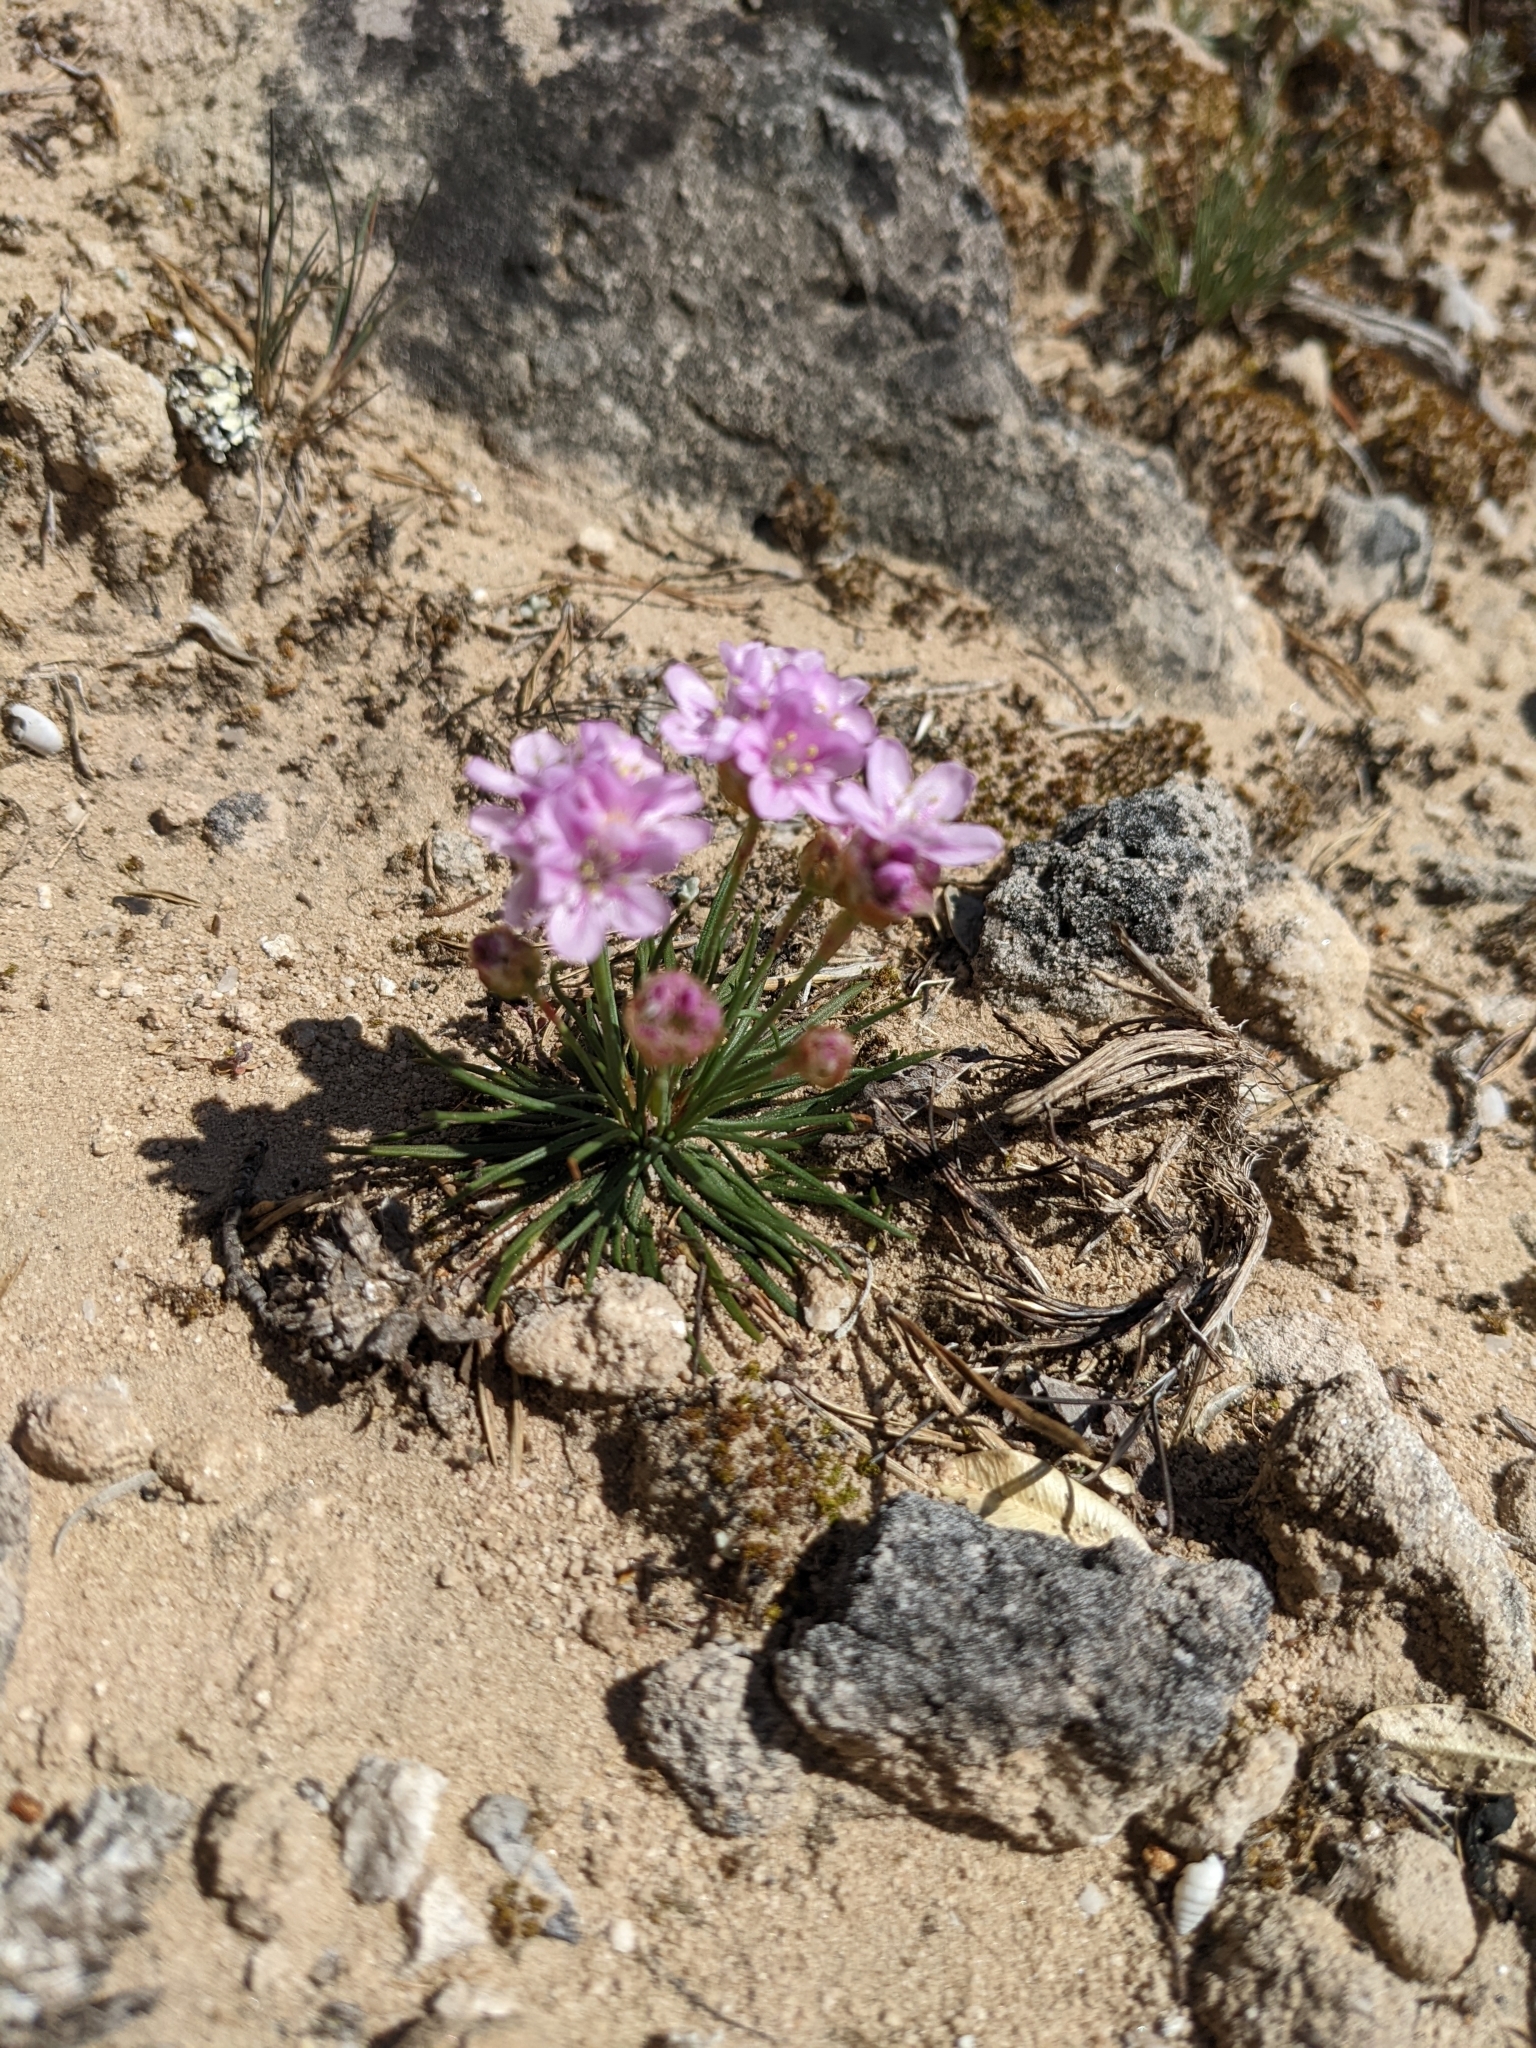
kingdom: Plantae
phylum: Tracheophyta
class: Magnoliopsida
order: Caryophyllales
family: Plumbaginaceae
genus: Armeria
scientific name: Armeria girardii
